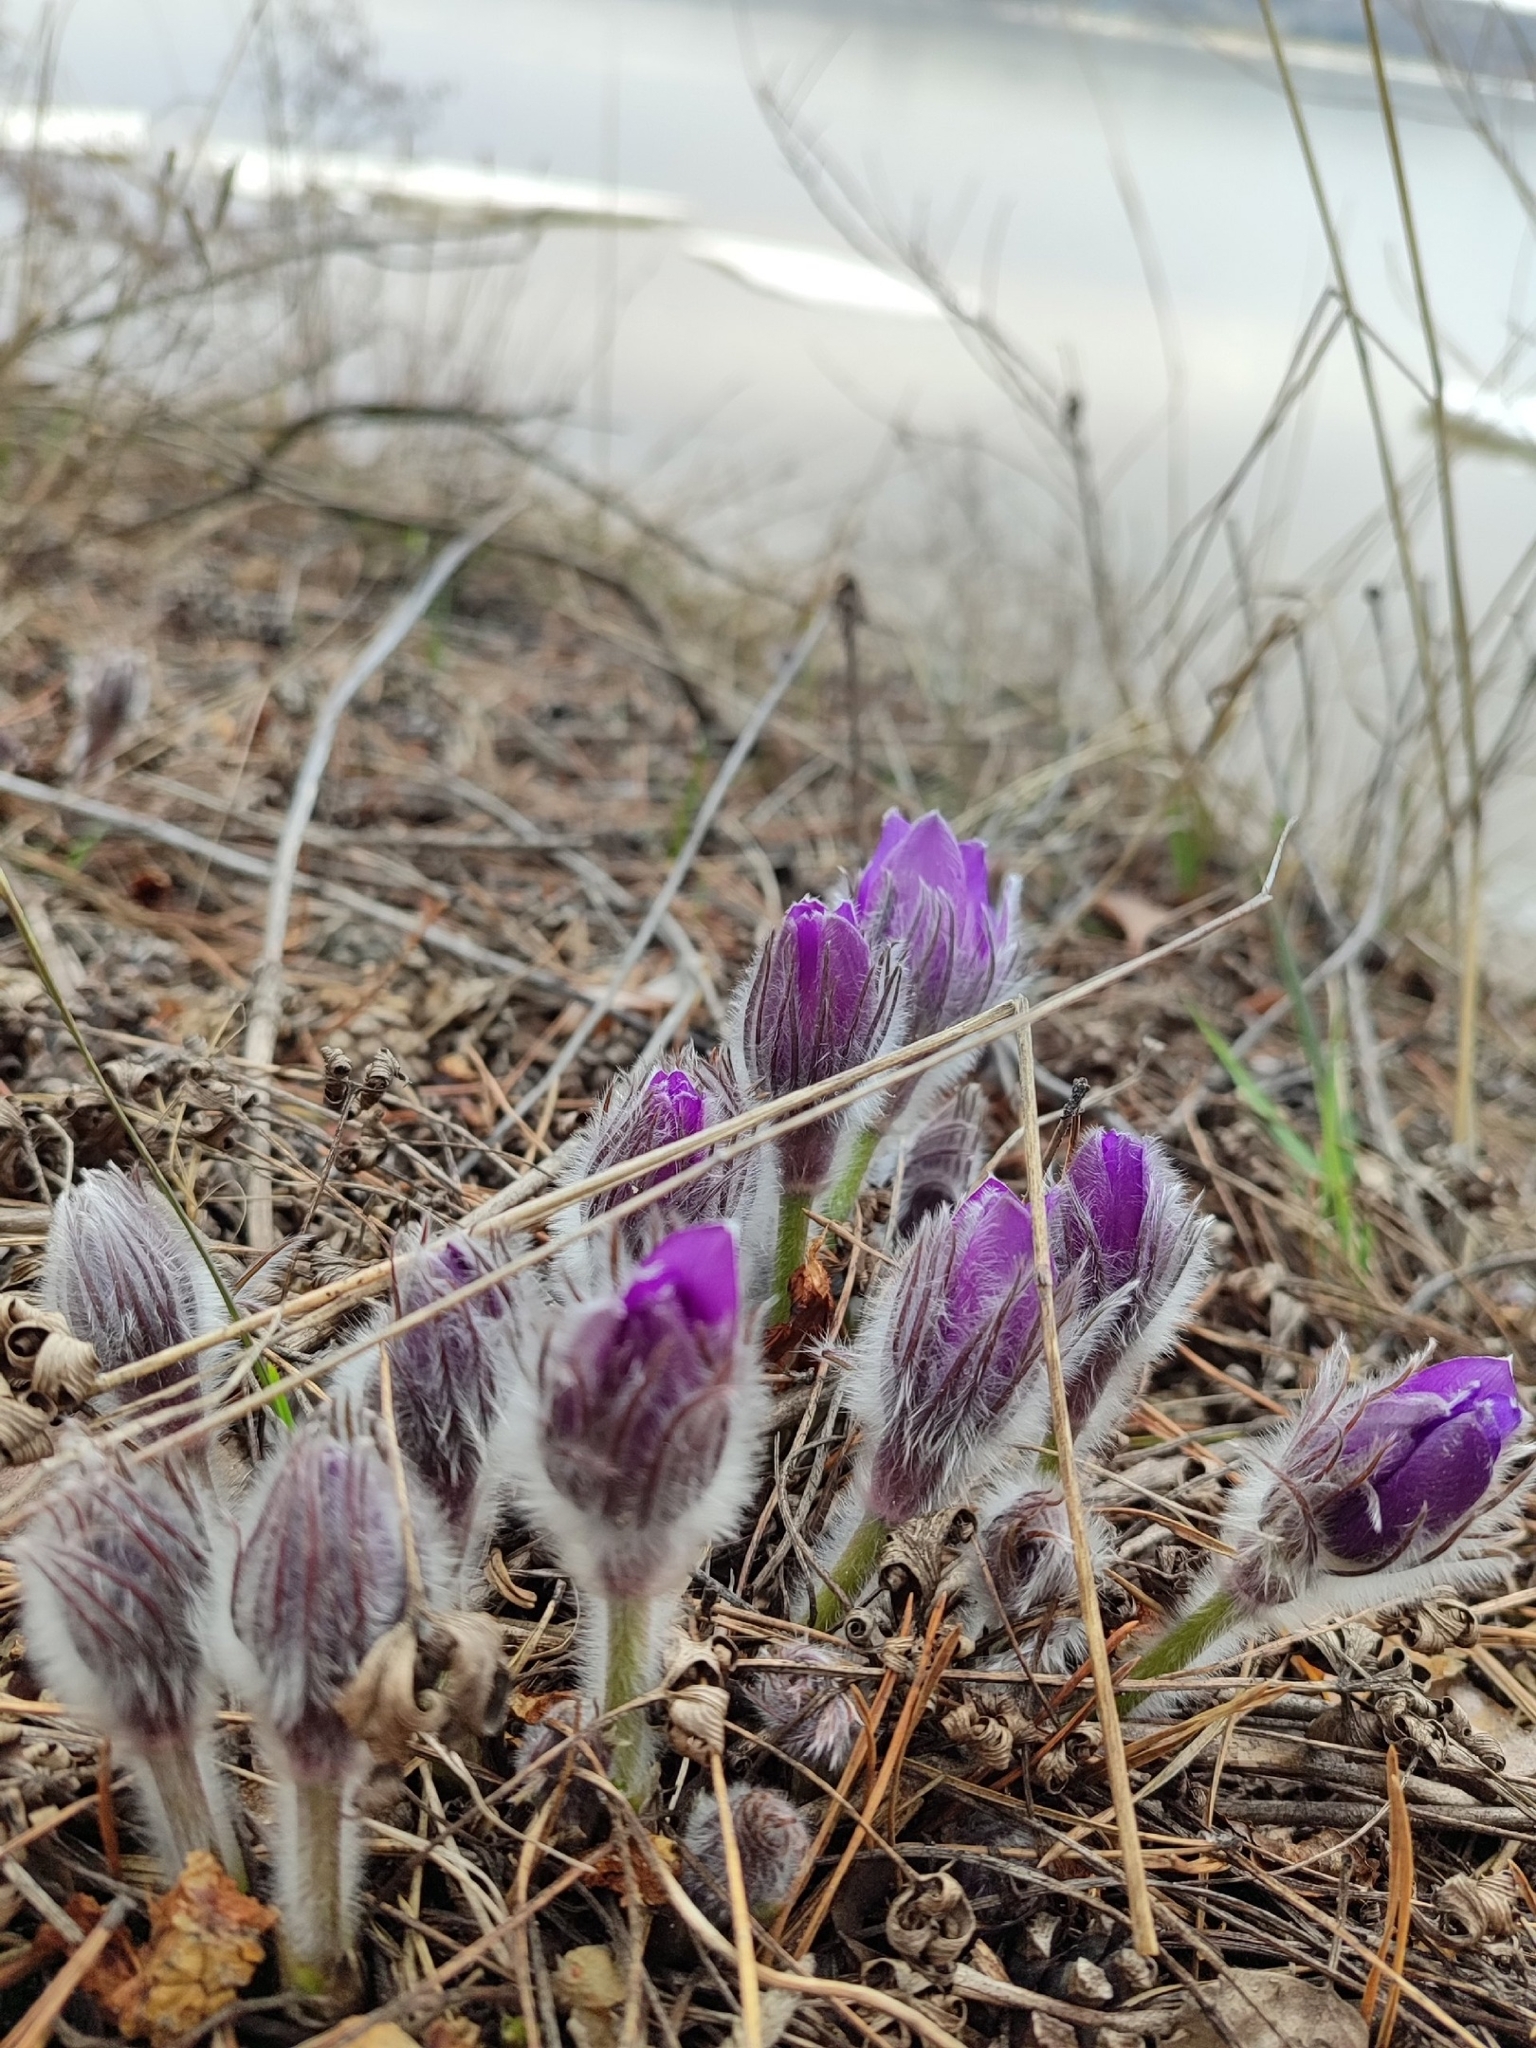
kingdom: Plantae
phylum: Tracheophyta
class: Magnoliopsida
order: Ranunculales
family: Ranunculaceae
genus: Pulsatilla
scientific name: Pulsatilla patens
